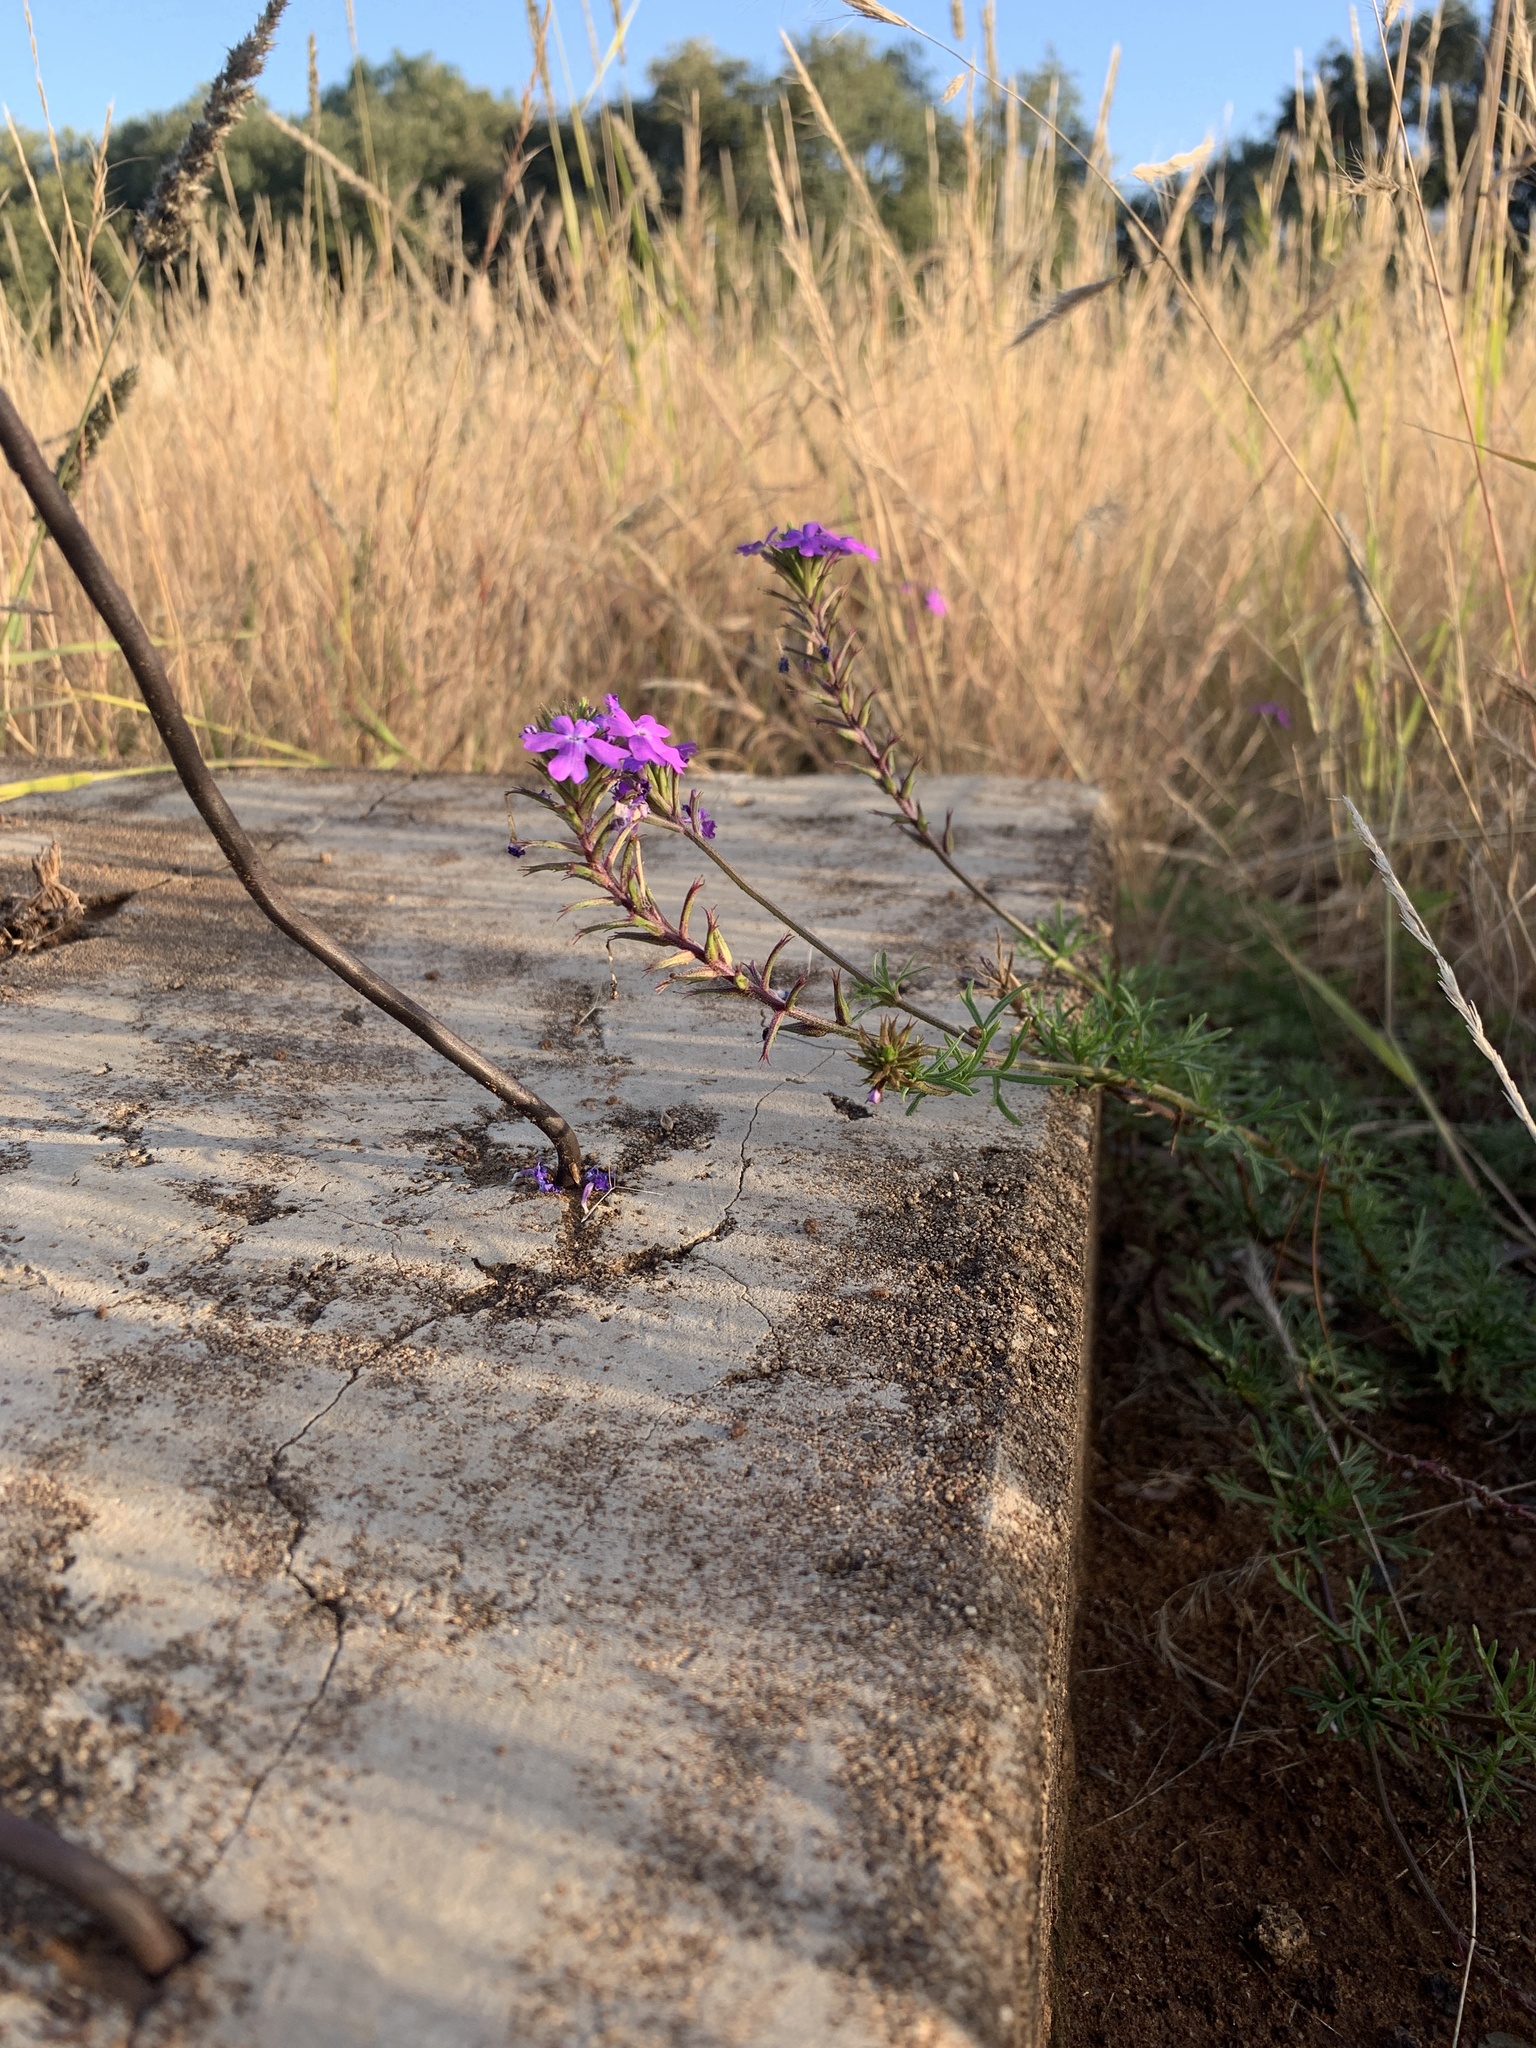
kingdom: Plantae
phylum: Tracheophyta
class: Magnoliopsida
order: Lamiales
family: Verbenaceae
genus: Verbena
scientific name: Verbena aristigera
